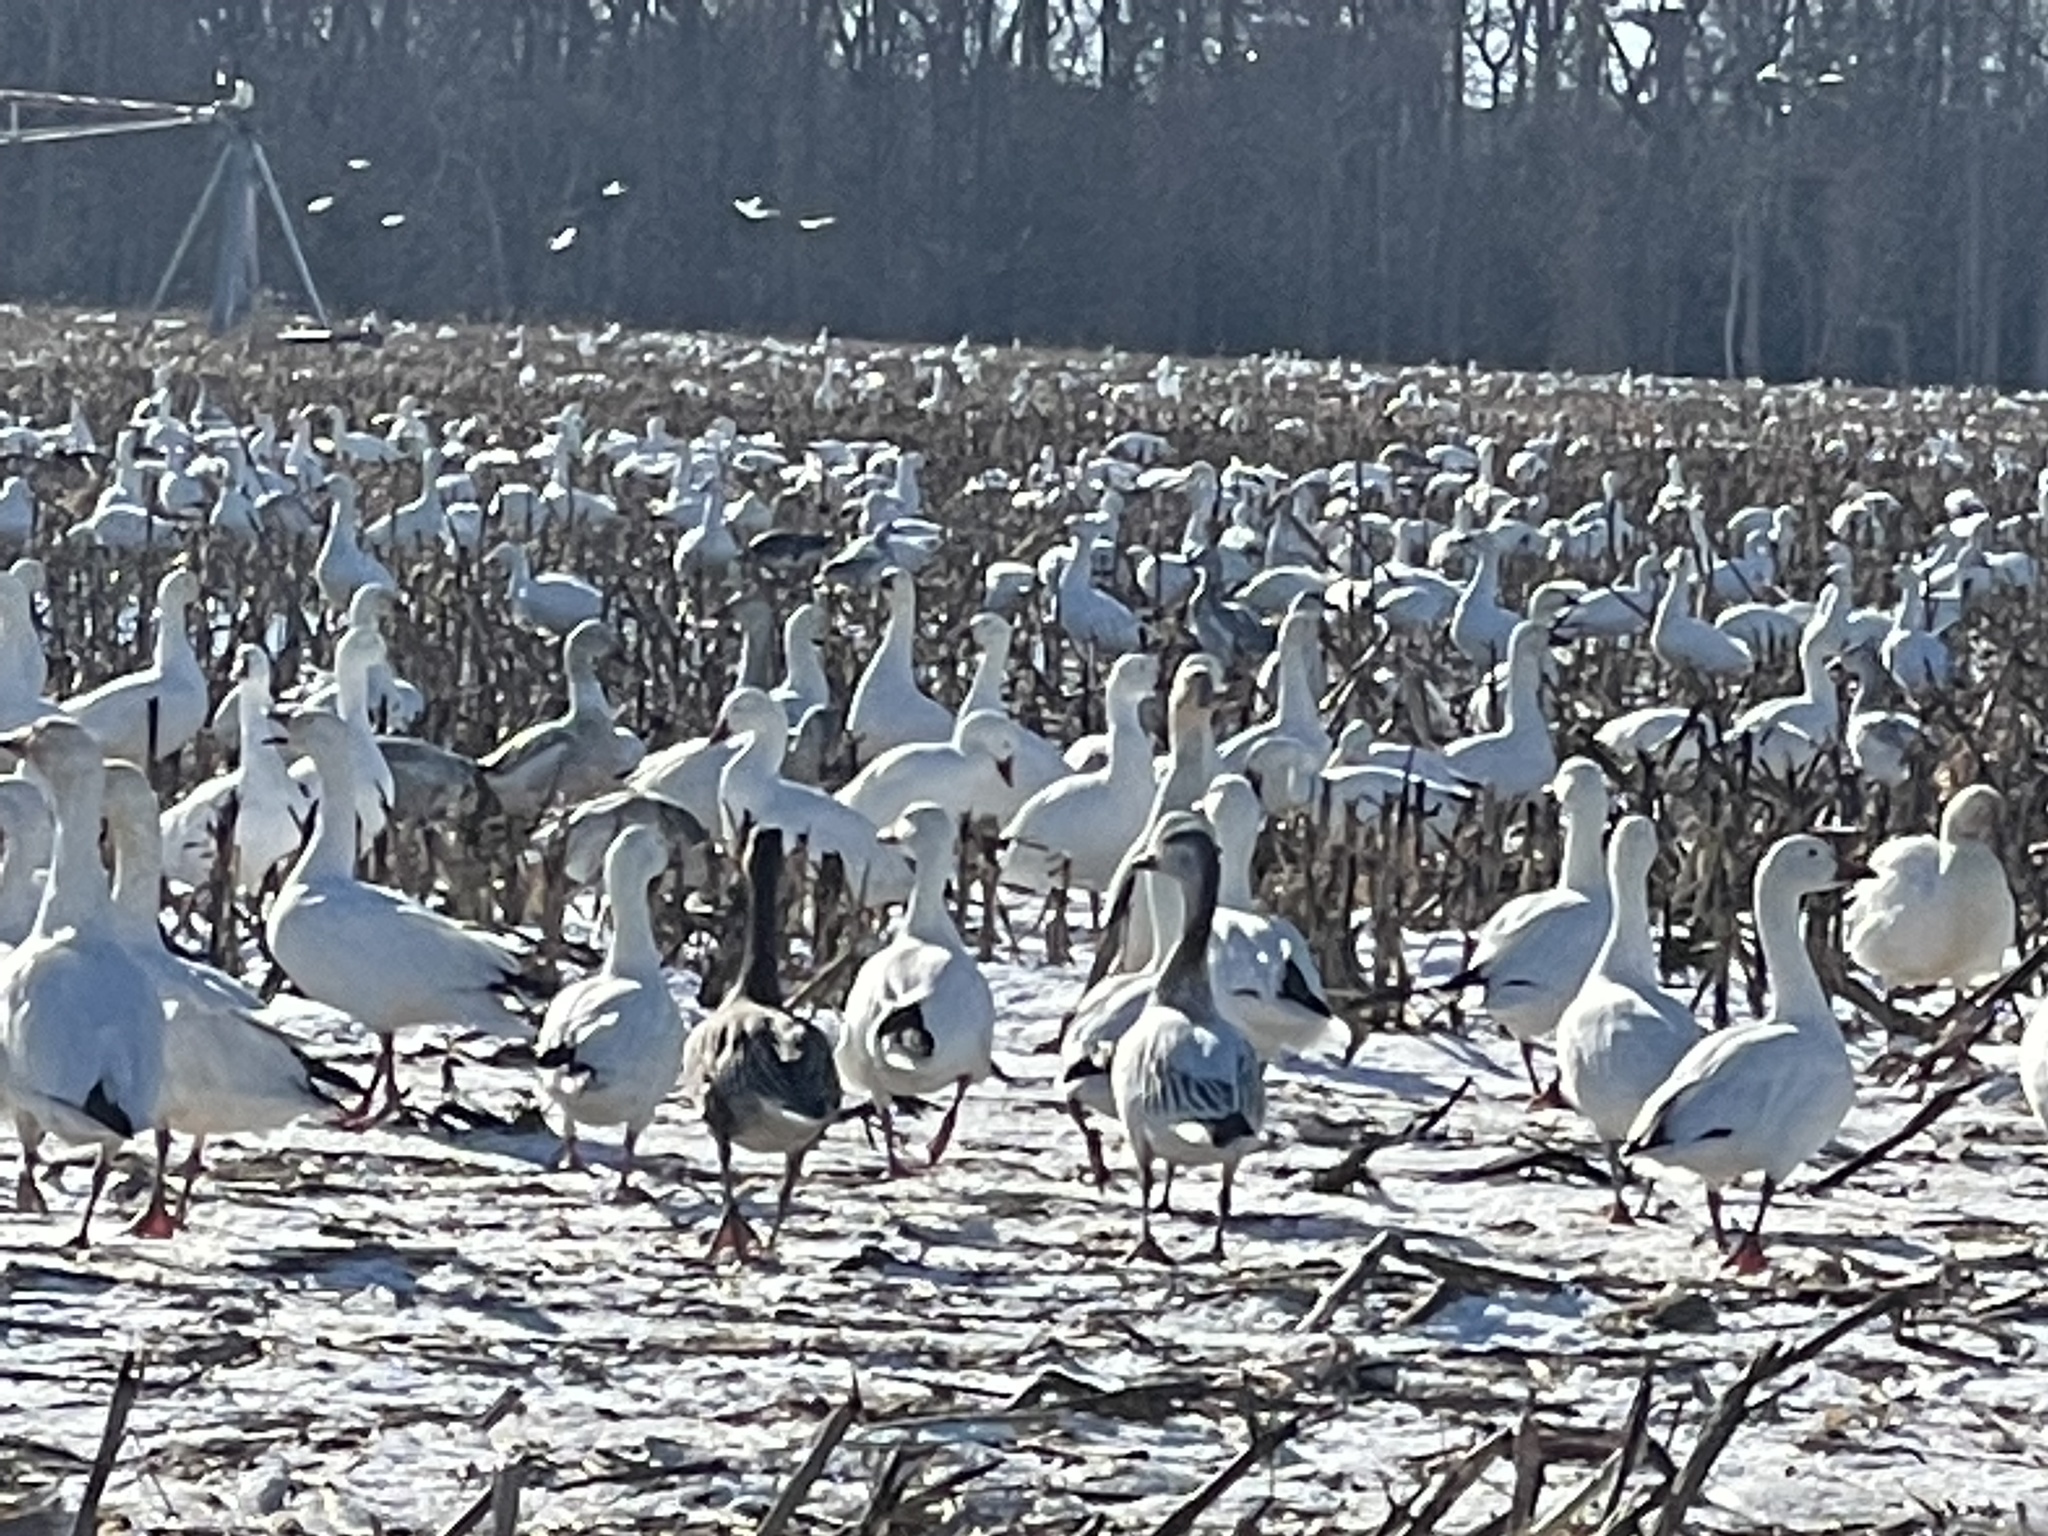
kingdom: Animalia
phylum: Chordata
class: Aves
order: Anseriformes
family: Anatidae
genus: Anser
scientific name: Anser caerulescens
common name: Snow goose
